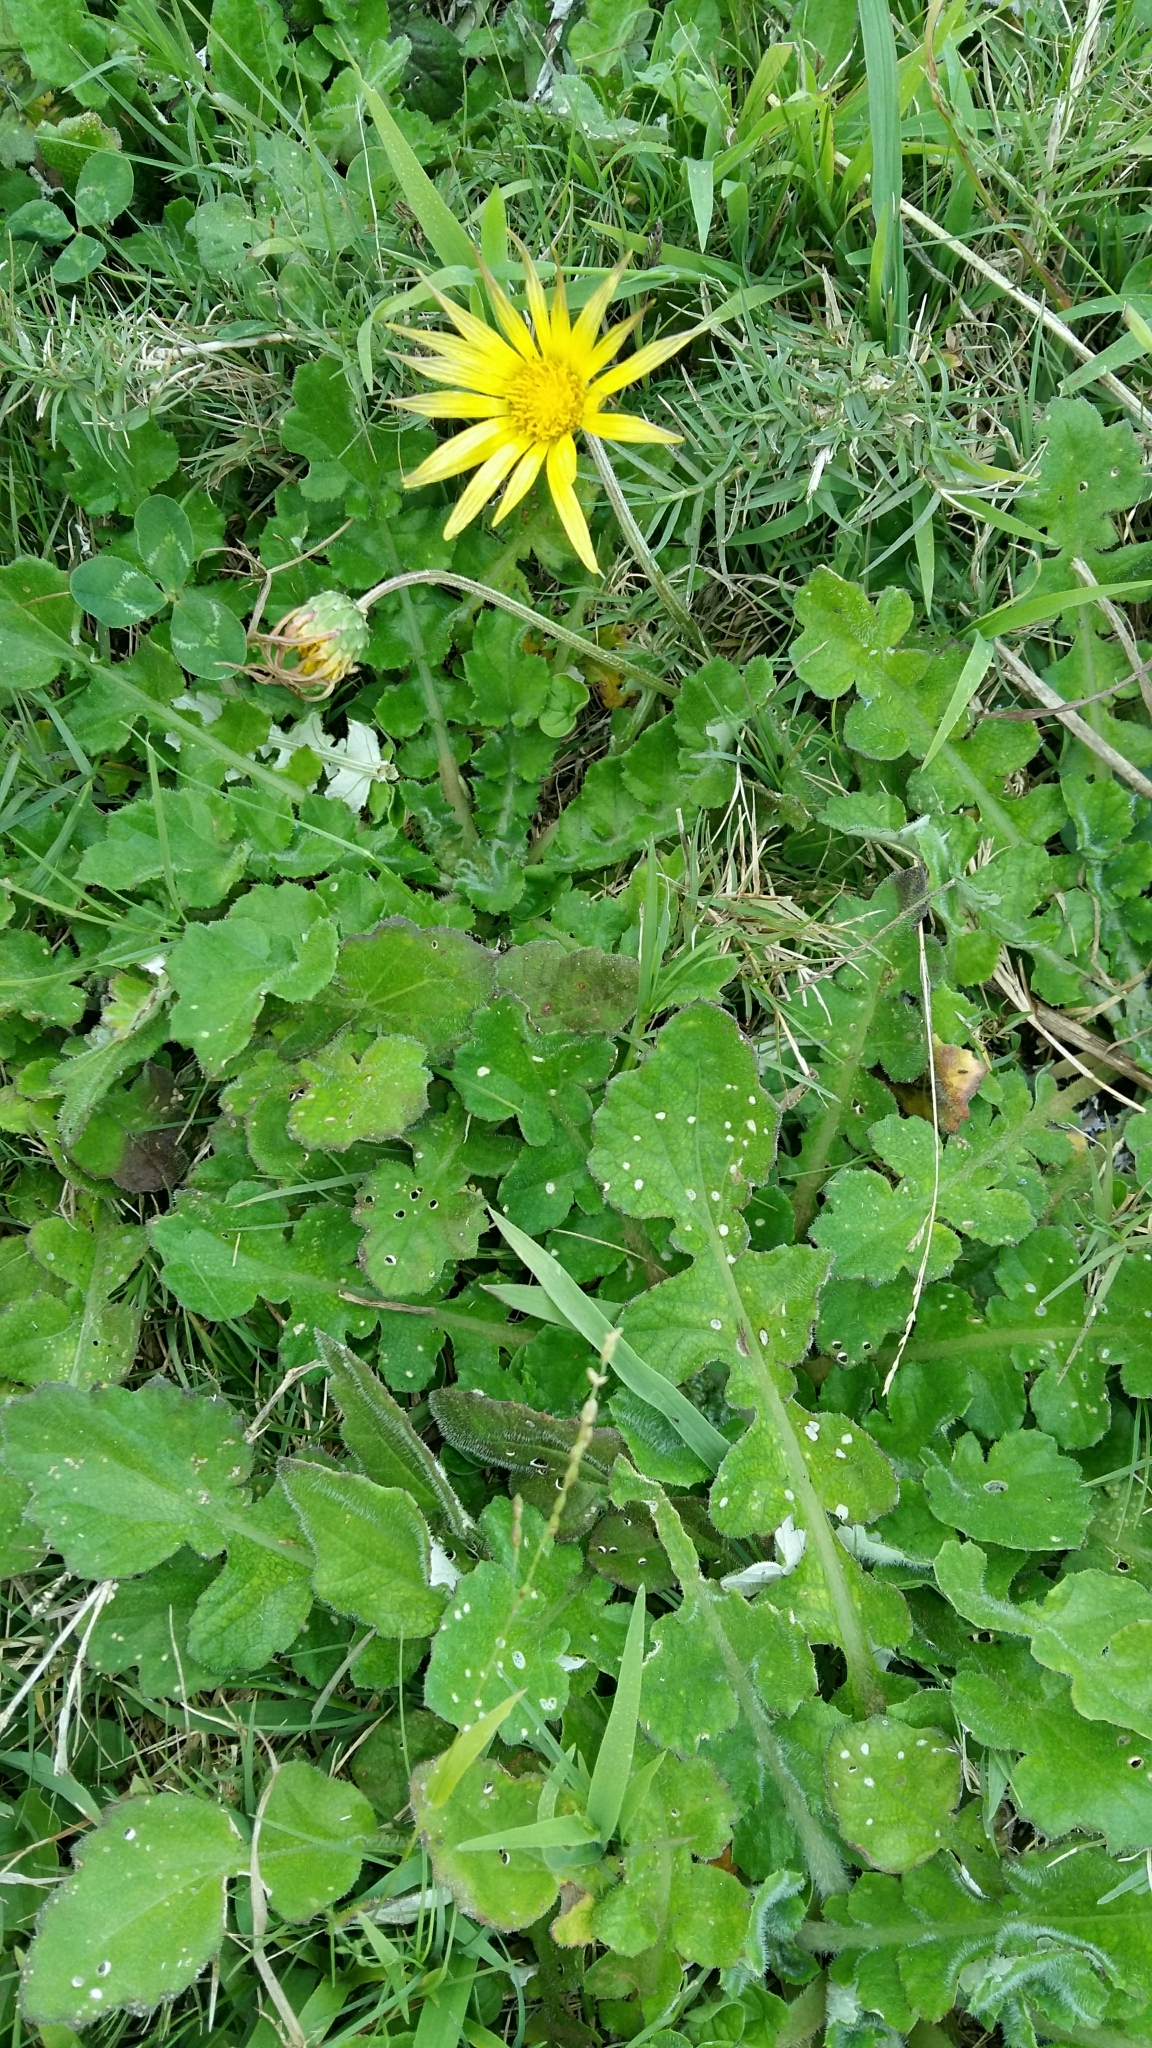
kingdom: Plantae
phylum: Tracheophyta
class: Magnoliopsida
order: Asterales
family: Asteraceae
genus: Arctotheca
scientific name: Arctotheca prostrata
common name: Capeweed
